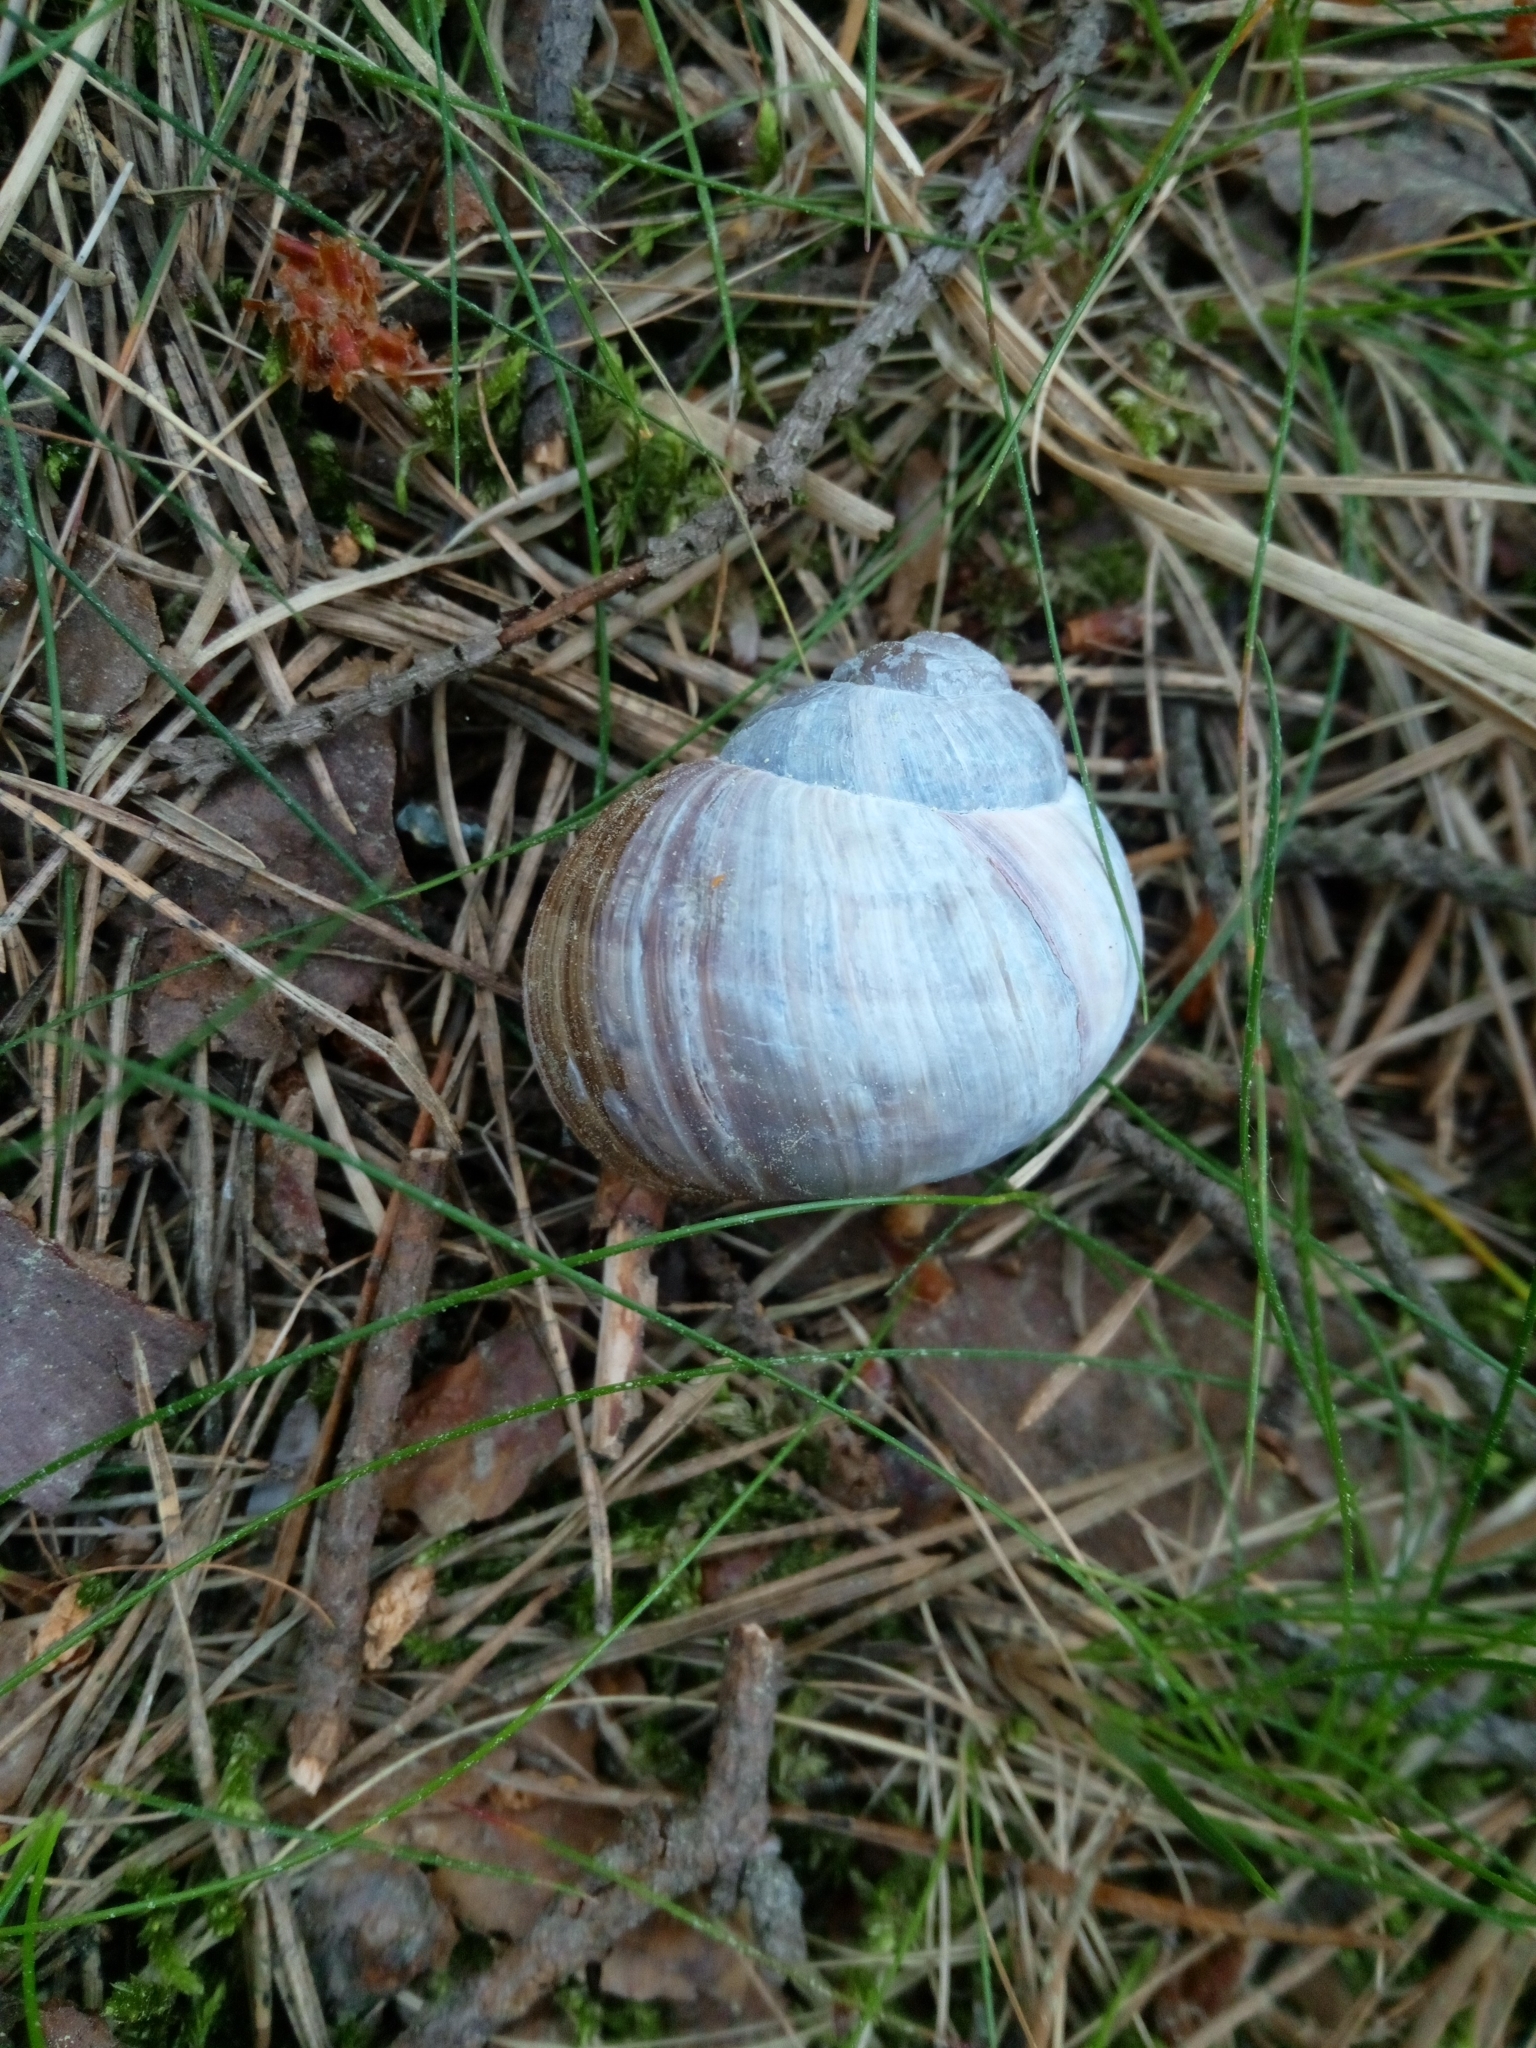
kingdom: Animalia
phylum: Mollusca
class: Gastropoda
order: Stylommatophora
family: Helicidae
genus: Helix
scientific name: Helix pomatia
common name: Roman snail
